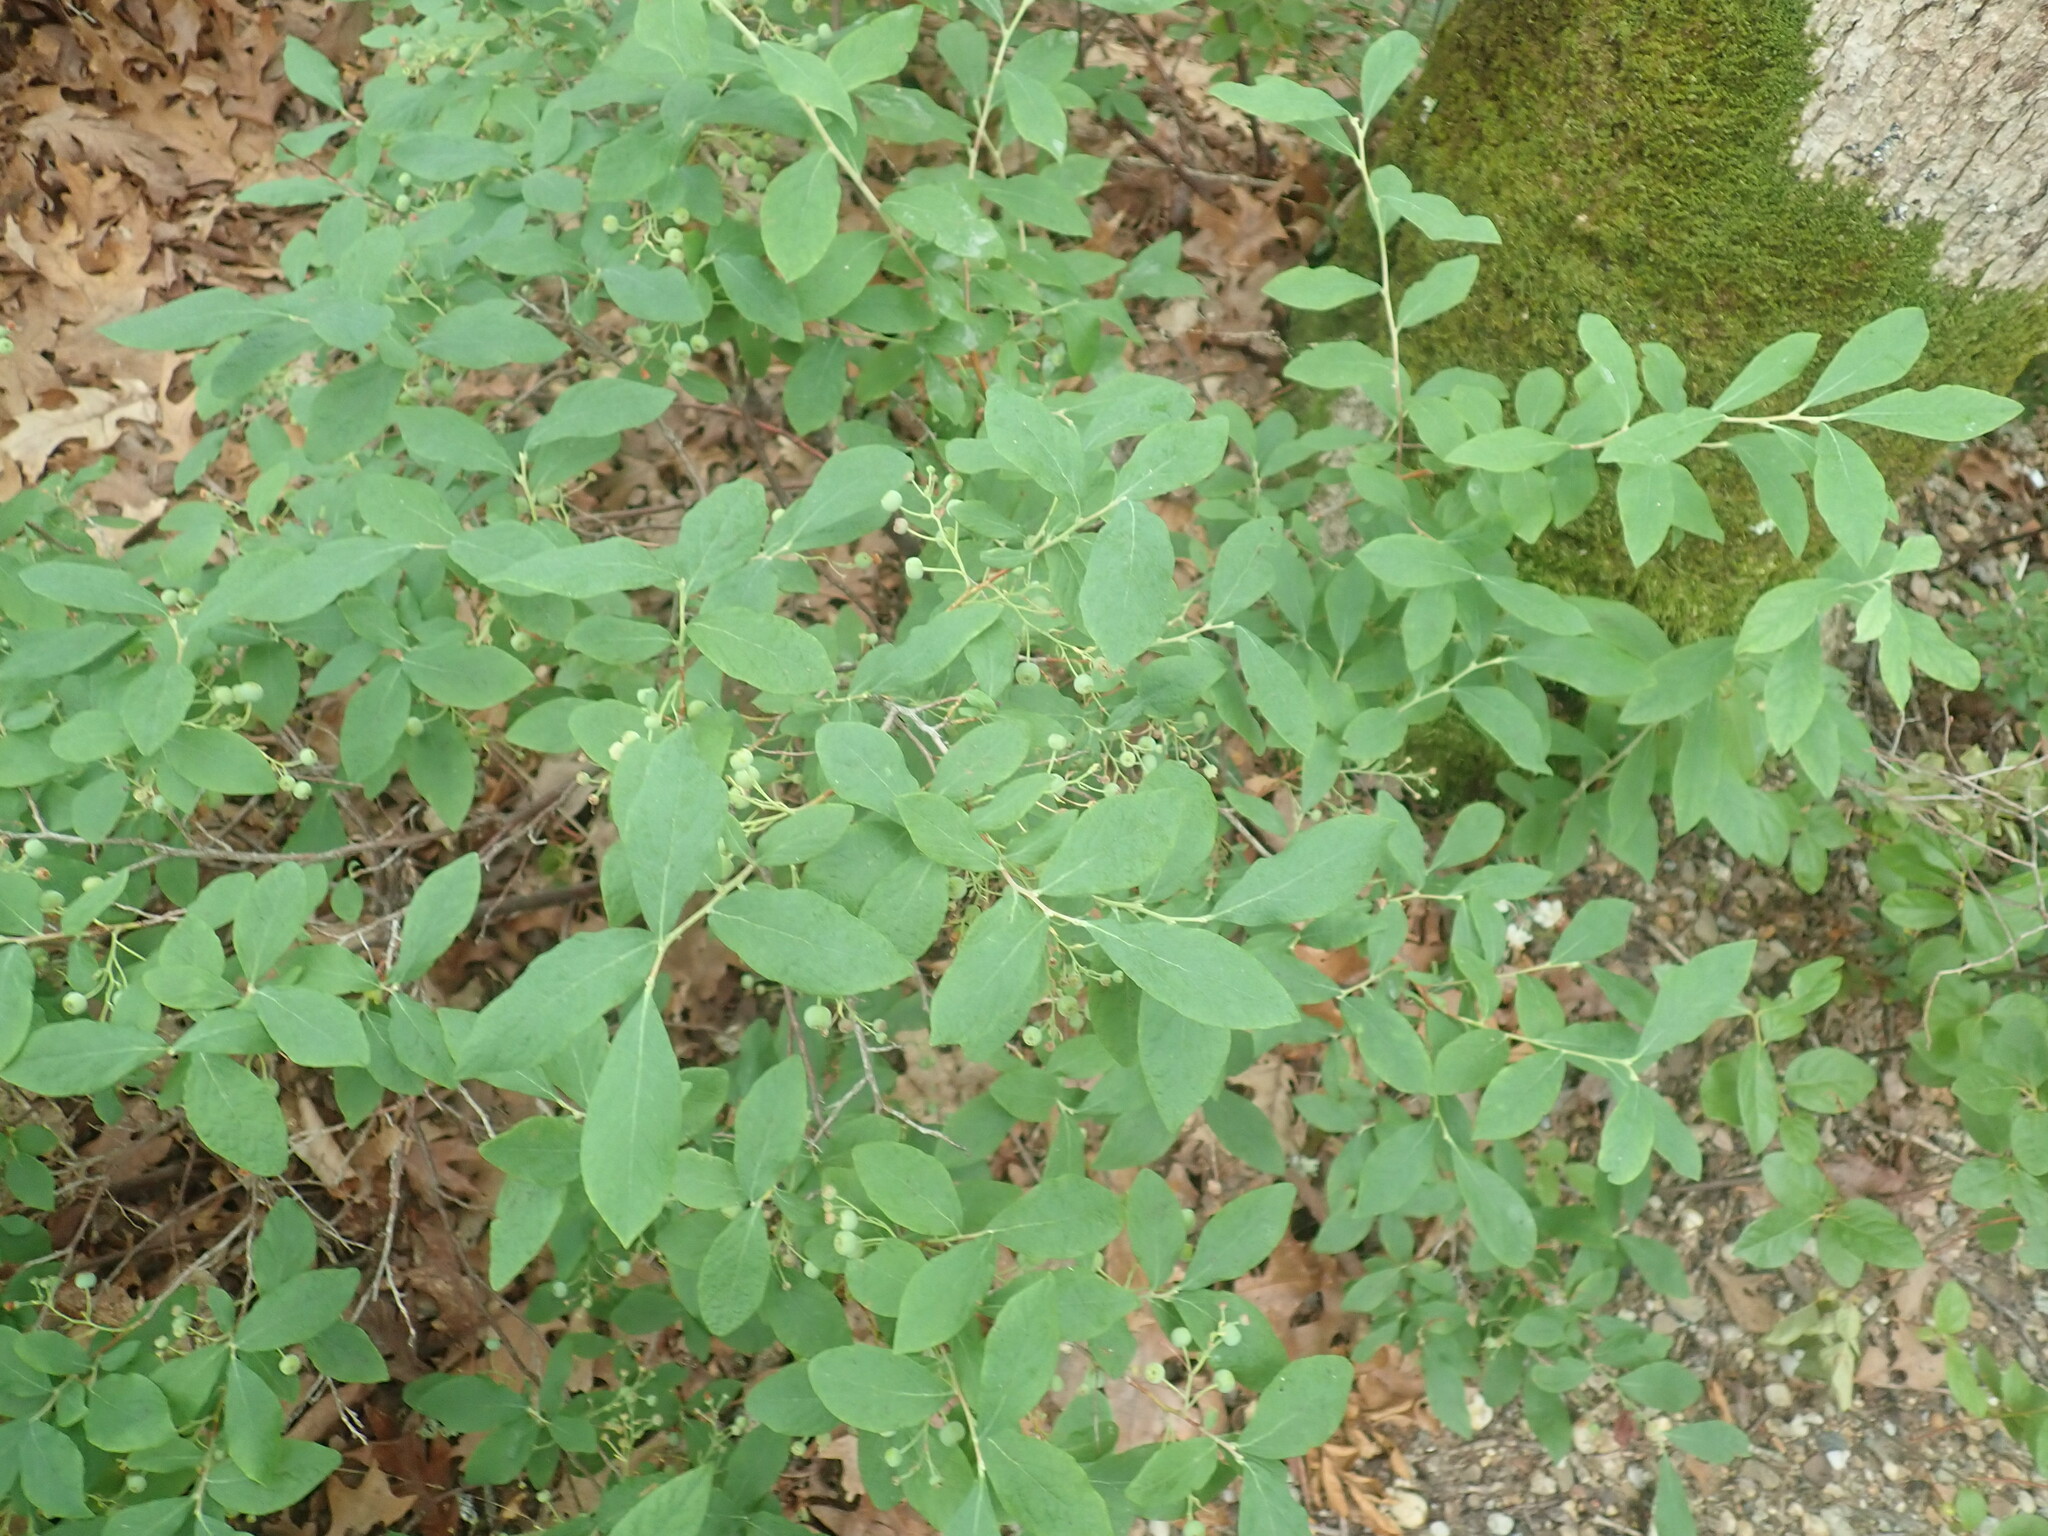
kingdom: Plantae
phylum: Tracheophyta
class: Magnoliopsida
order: Ericales
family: Ericaceae
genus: Gaylussacia
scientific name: Gaylussacia frondosa
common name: Dangleberry
